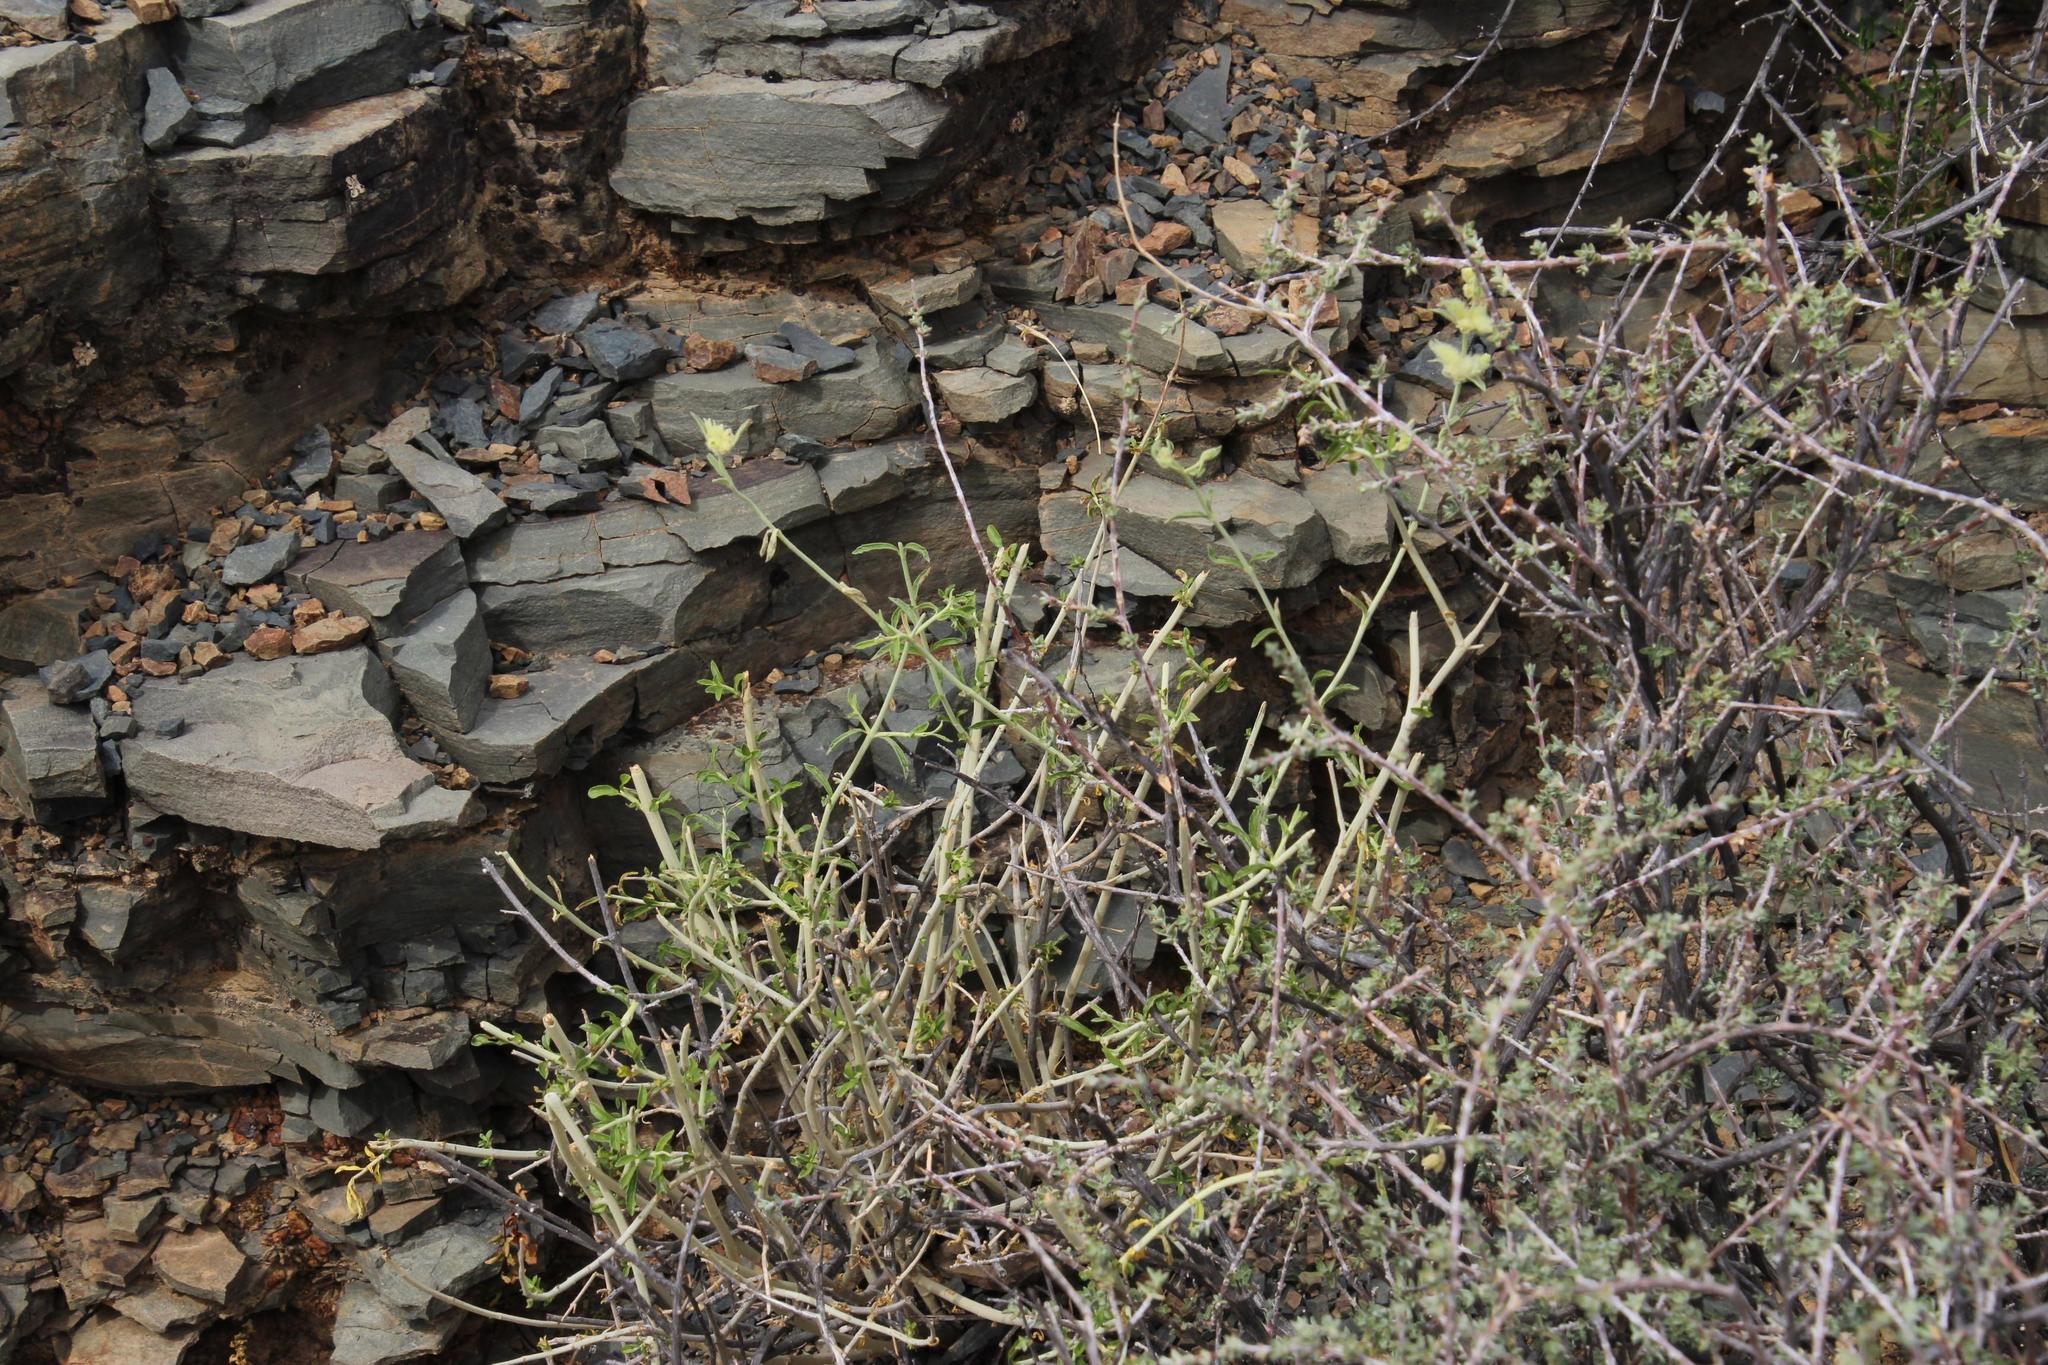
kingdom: Plantae
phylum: Tracheophyta
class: Magnoliopsida
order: Lamiales
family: Lamiaceae
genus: Stachys
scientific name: Stachys aurea
